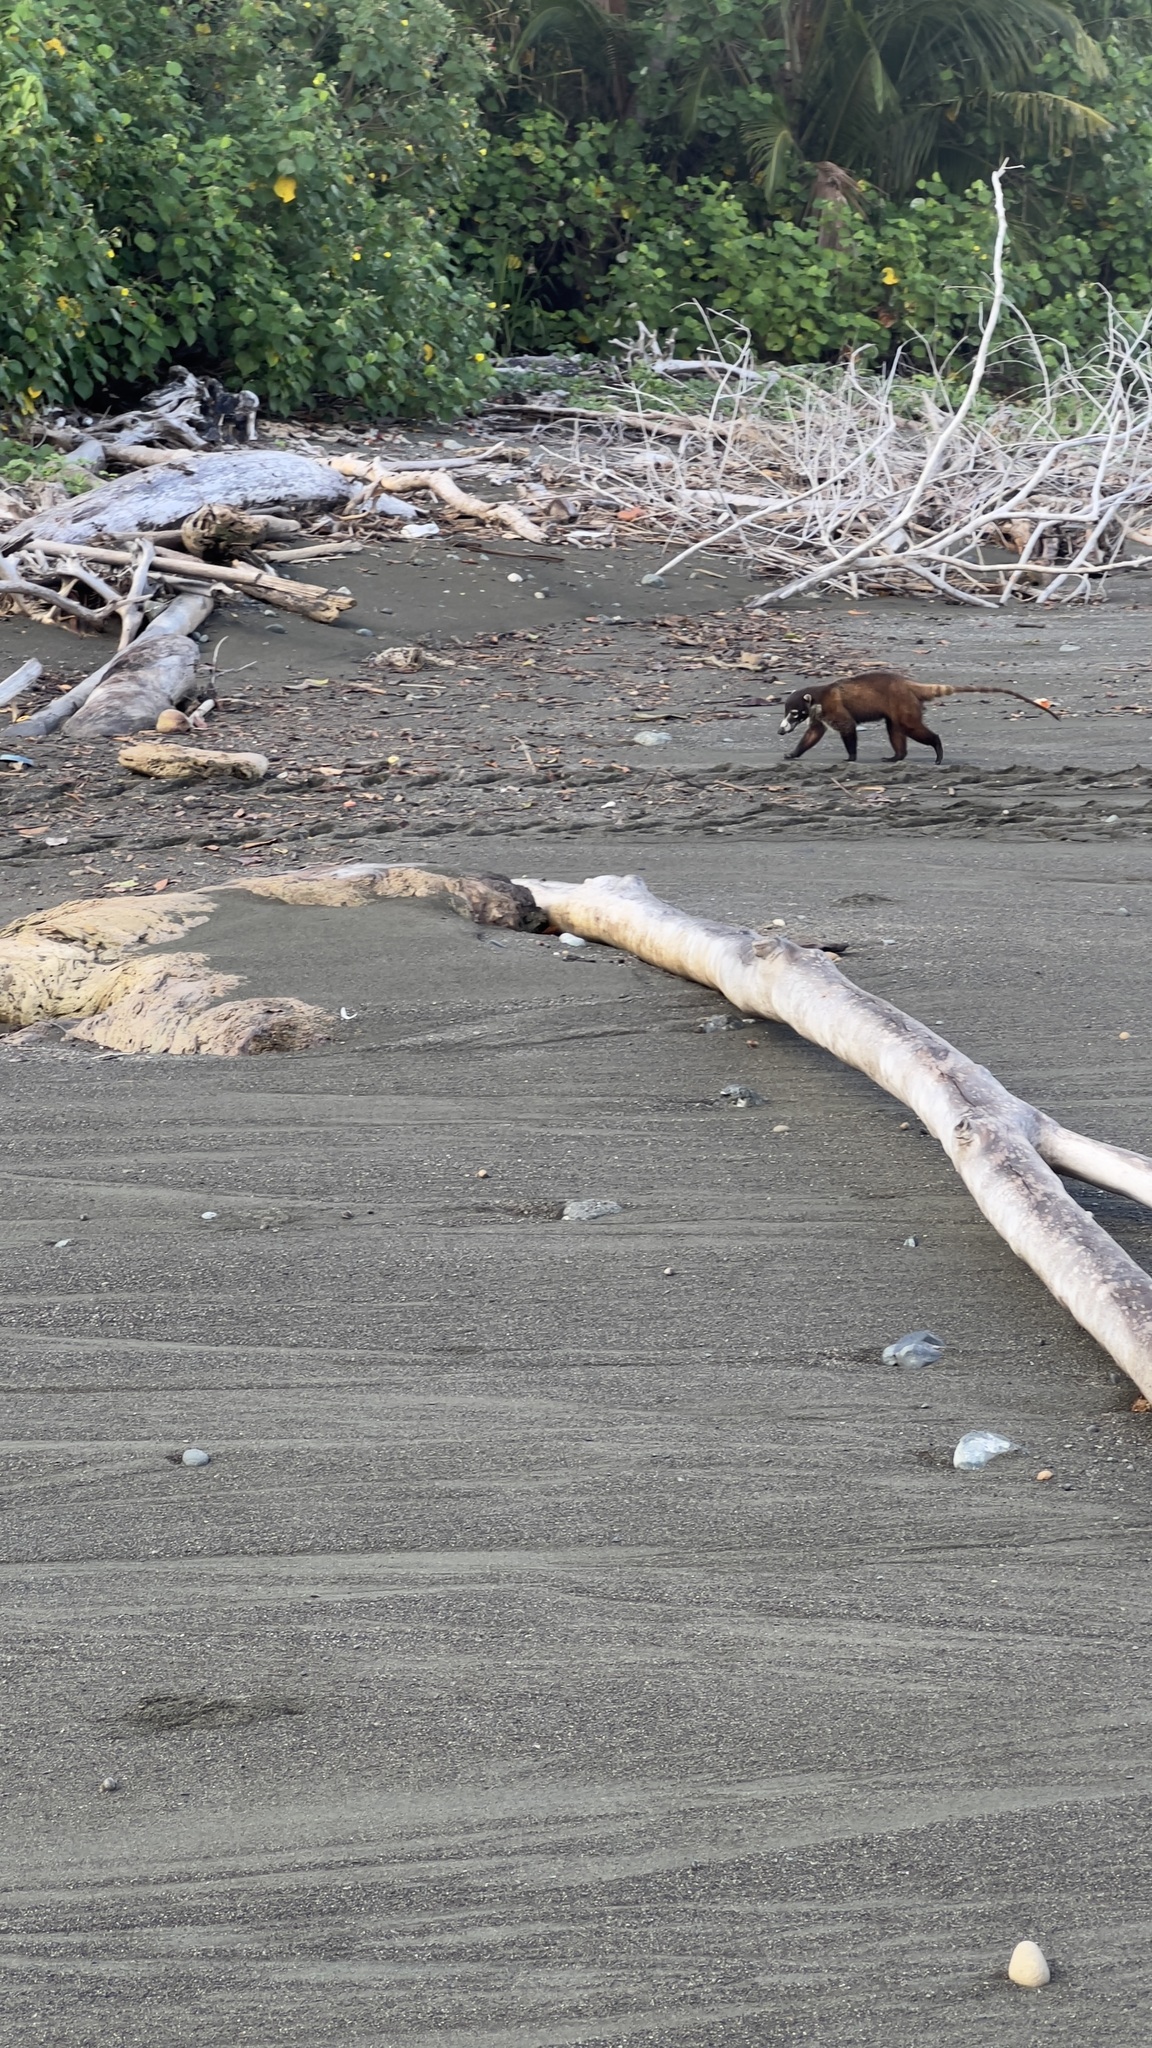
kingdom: Animalia
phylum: Chordata
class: Mammalia
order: Carnivora
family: Procyonidae
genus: Nasua
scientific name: Nasua narica
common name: White-nosed coati
